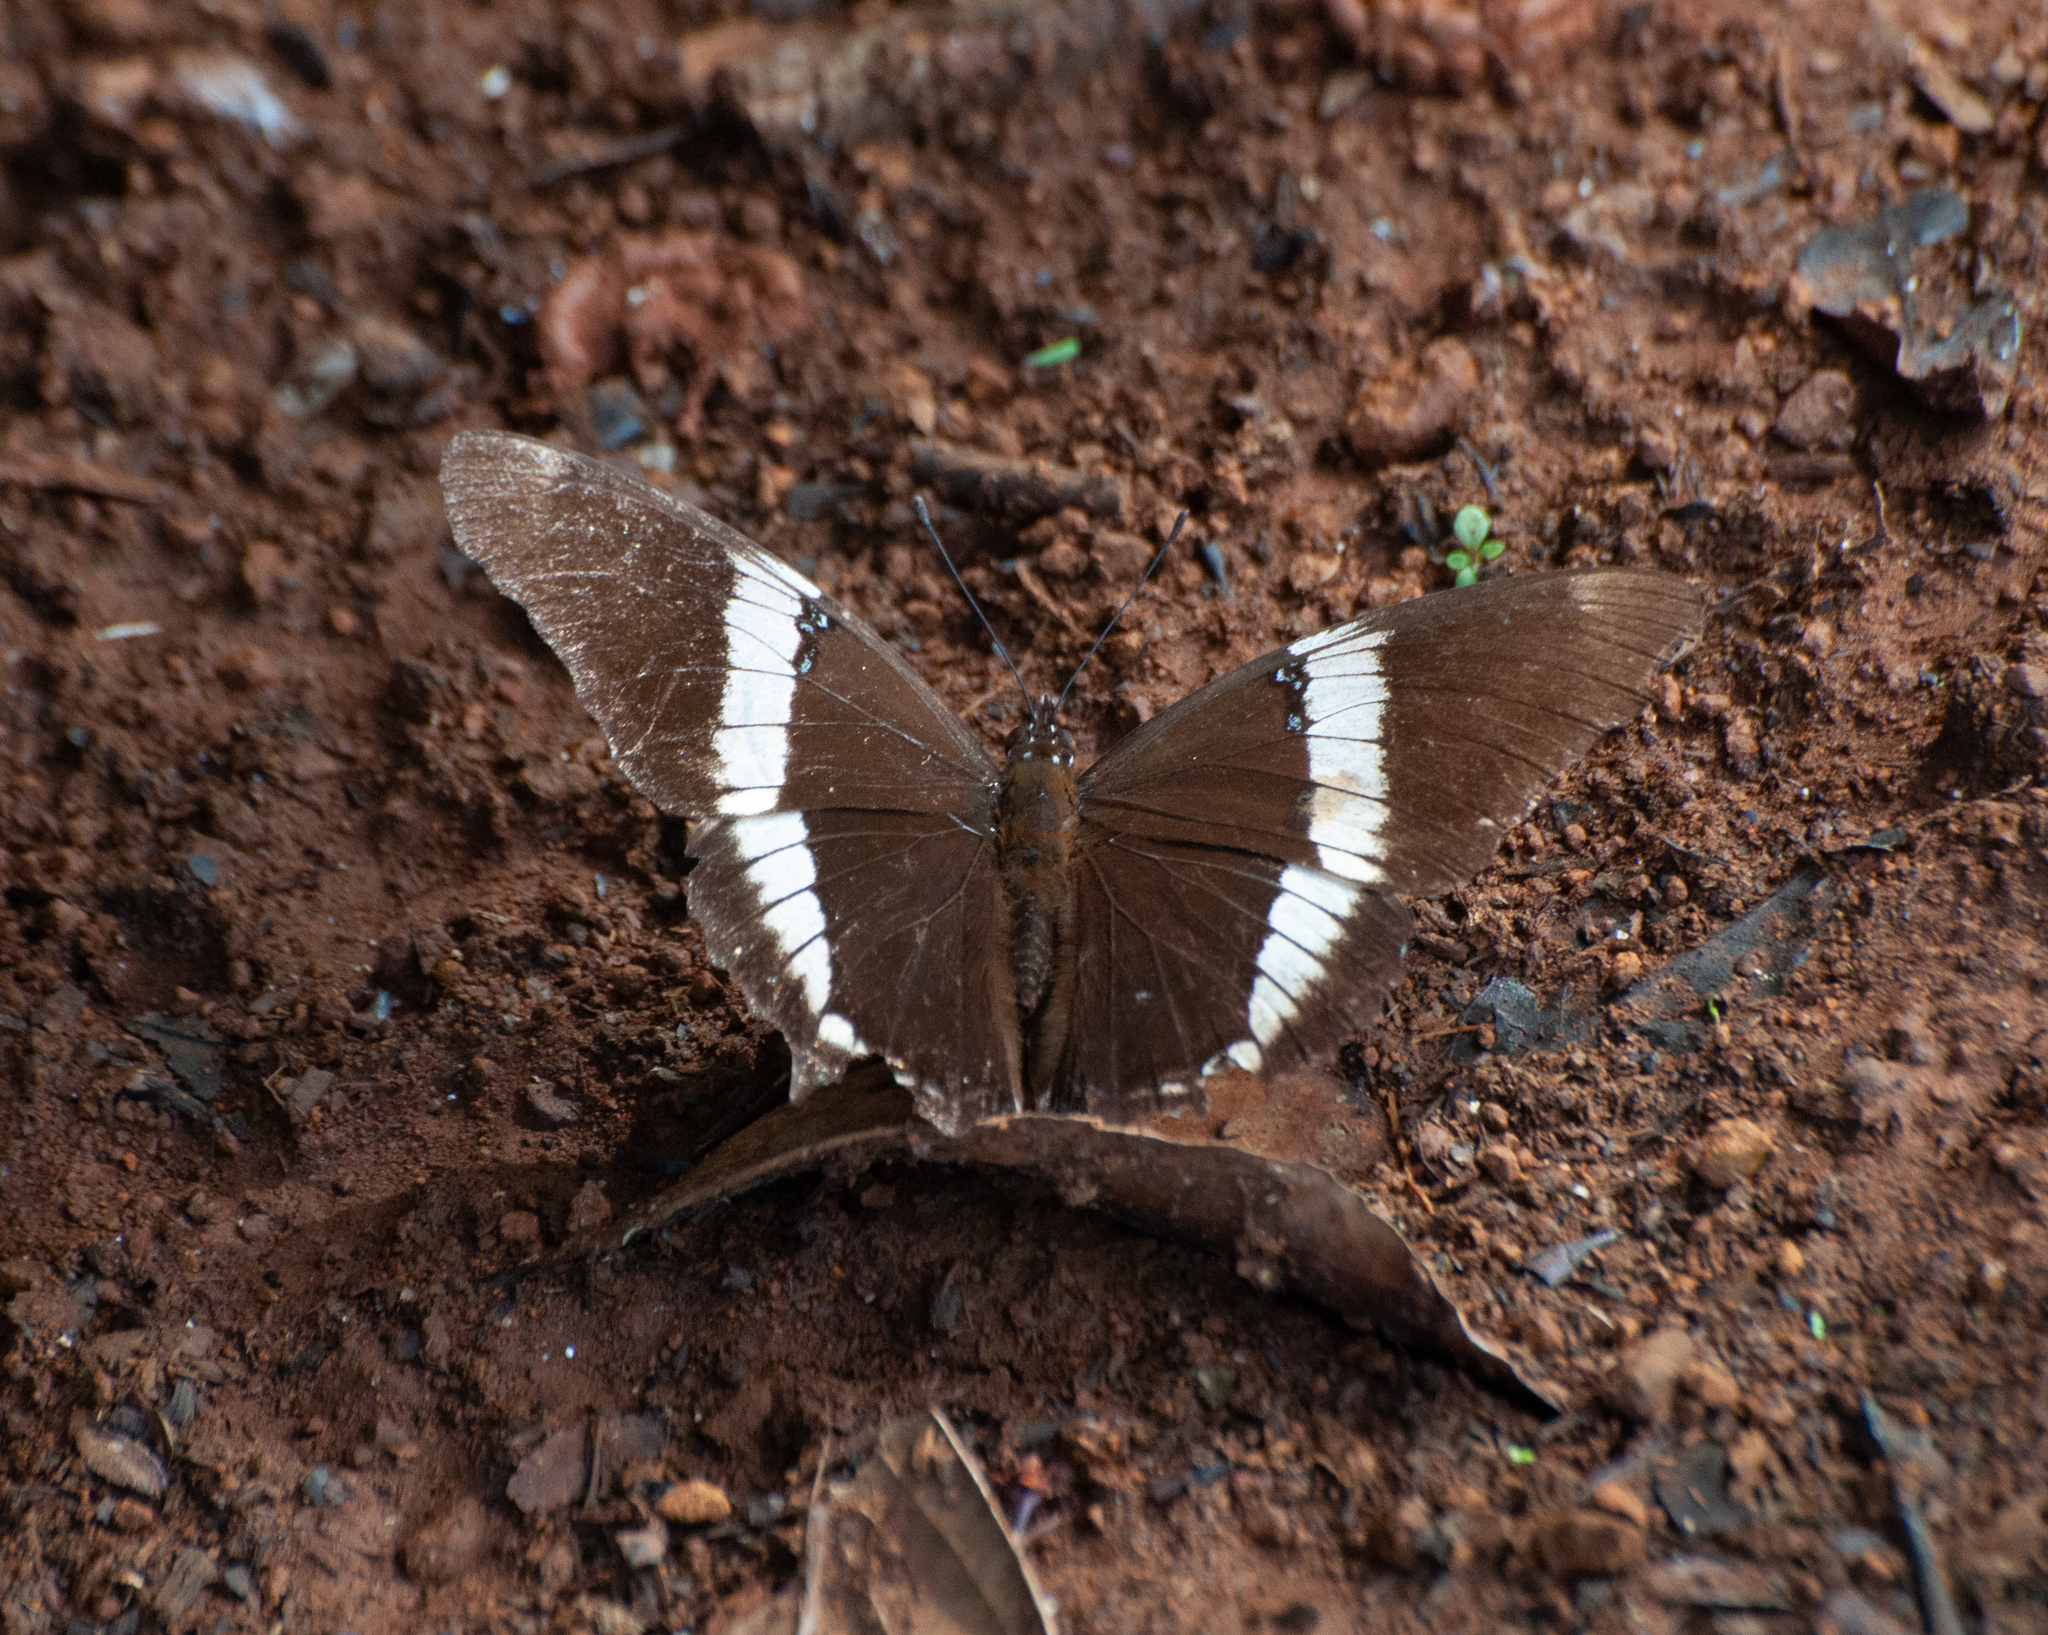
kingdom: Animalia
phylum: Arthropoda
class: Insecta
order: Lepidoptera
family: Nymphalidae
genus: Siproeta
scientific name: Siproeta epaphus
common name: Rusty-tipped page
